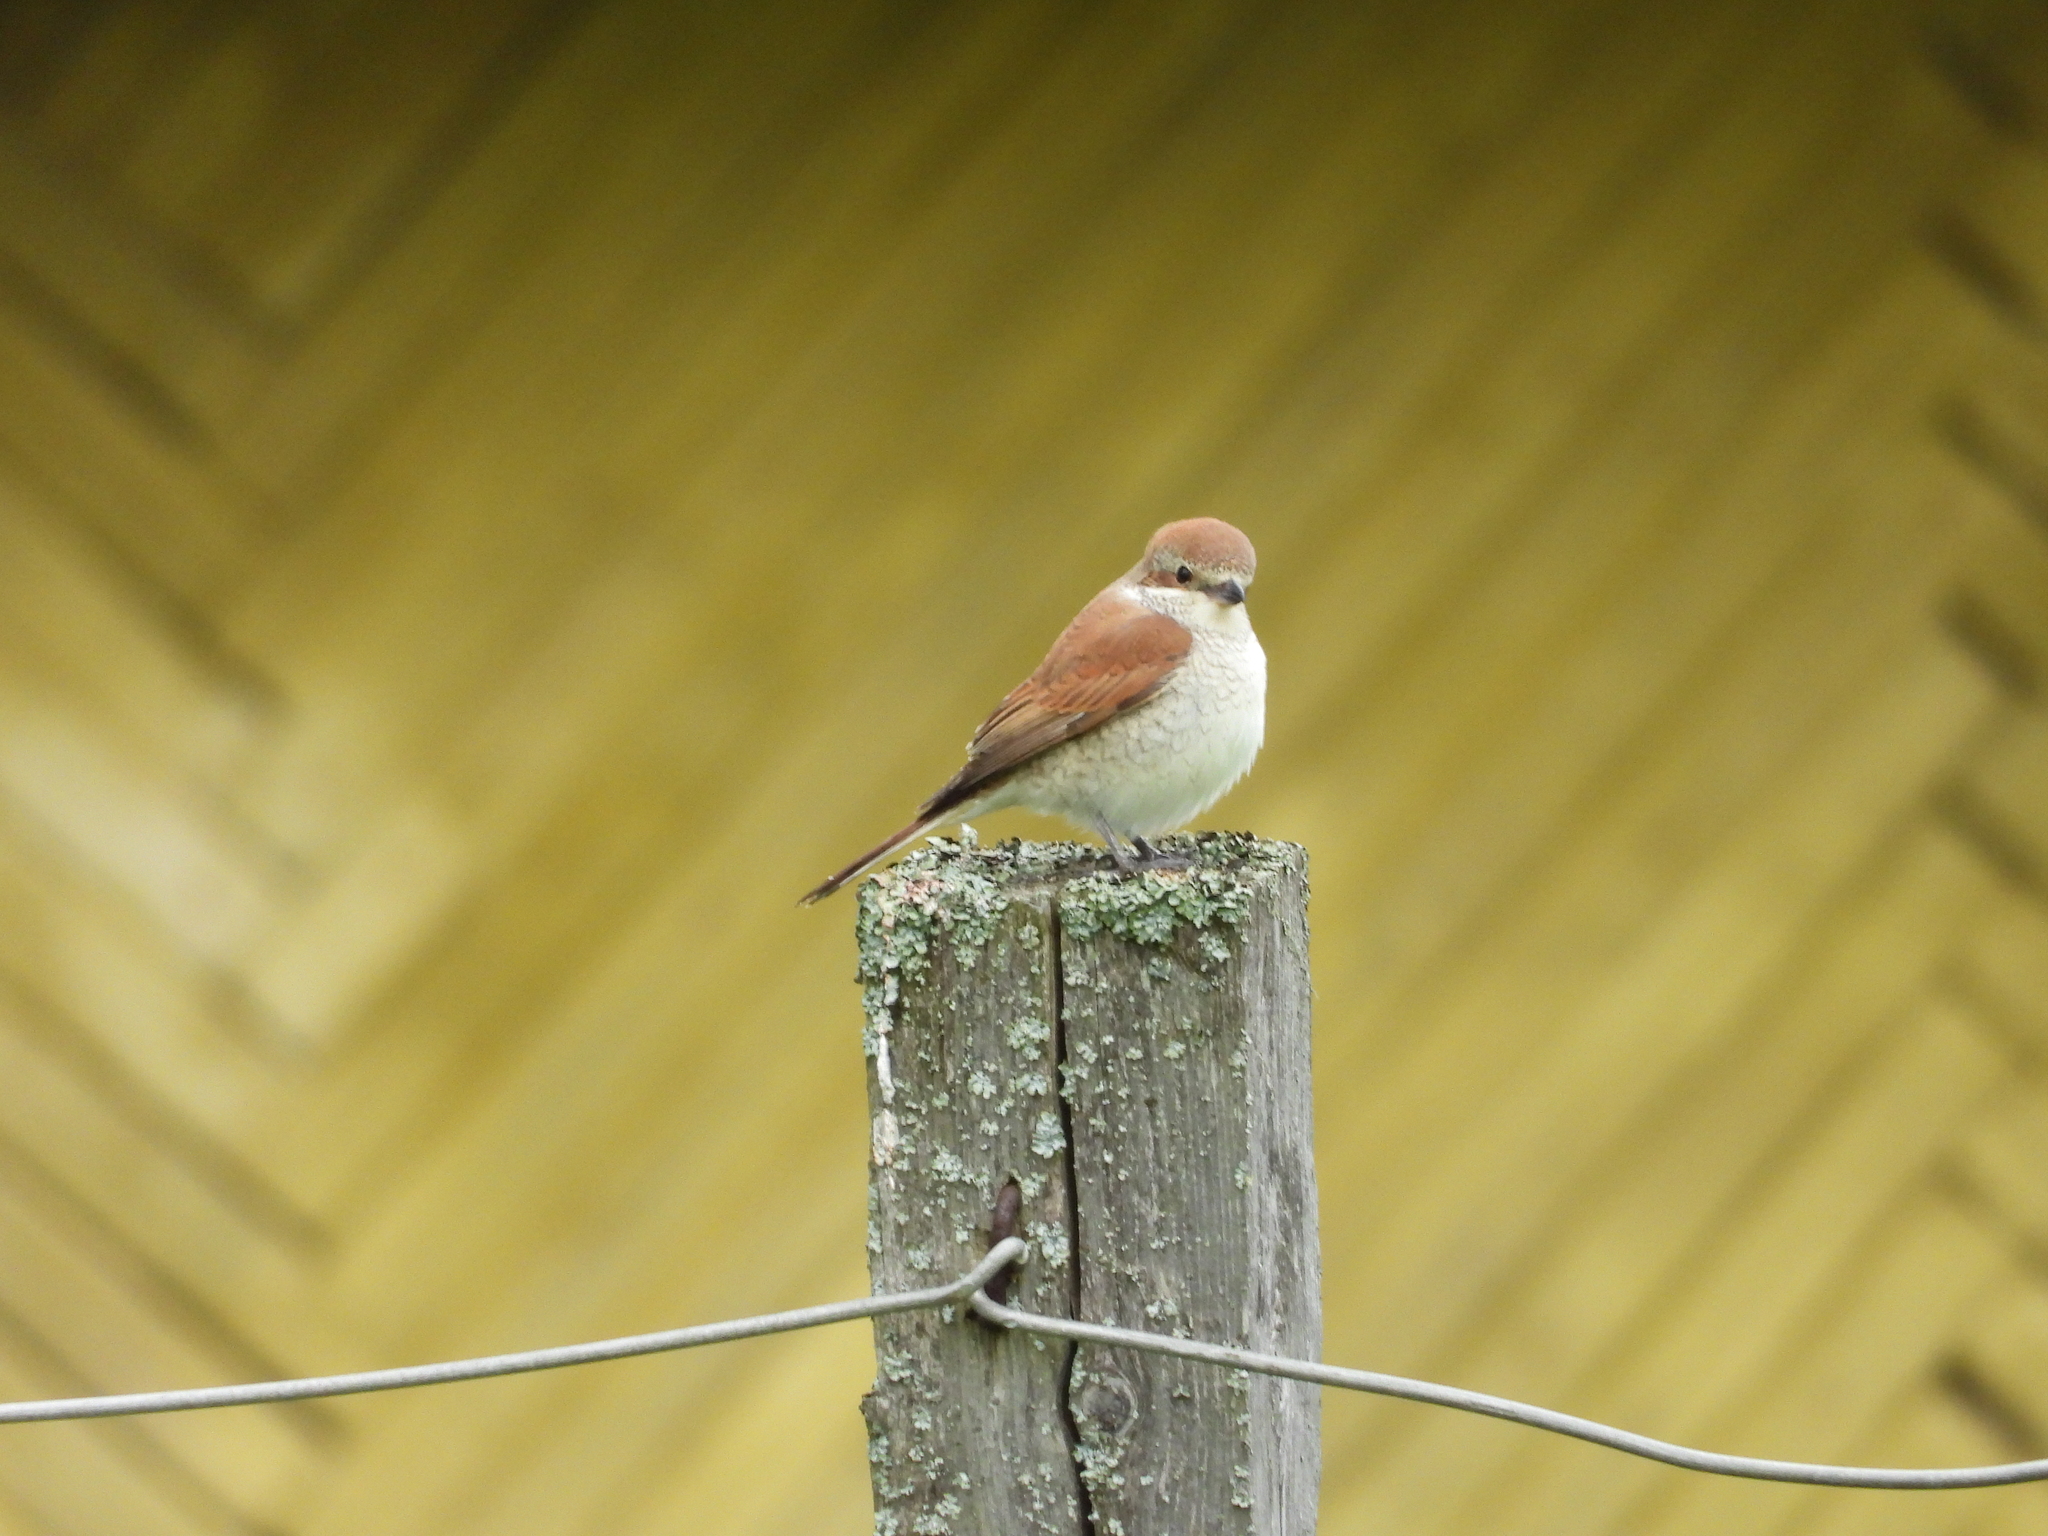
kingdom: Animalia
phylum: Chordata
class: Aves
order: Passeriformes
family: Laniidae
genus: Lanius
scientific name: Lanius collurio
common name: Red-backed shrike
